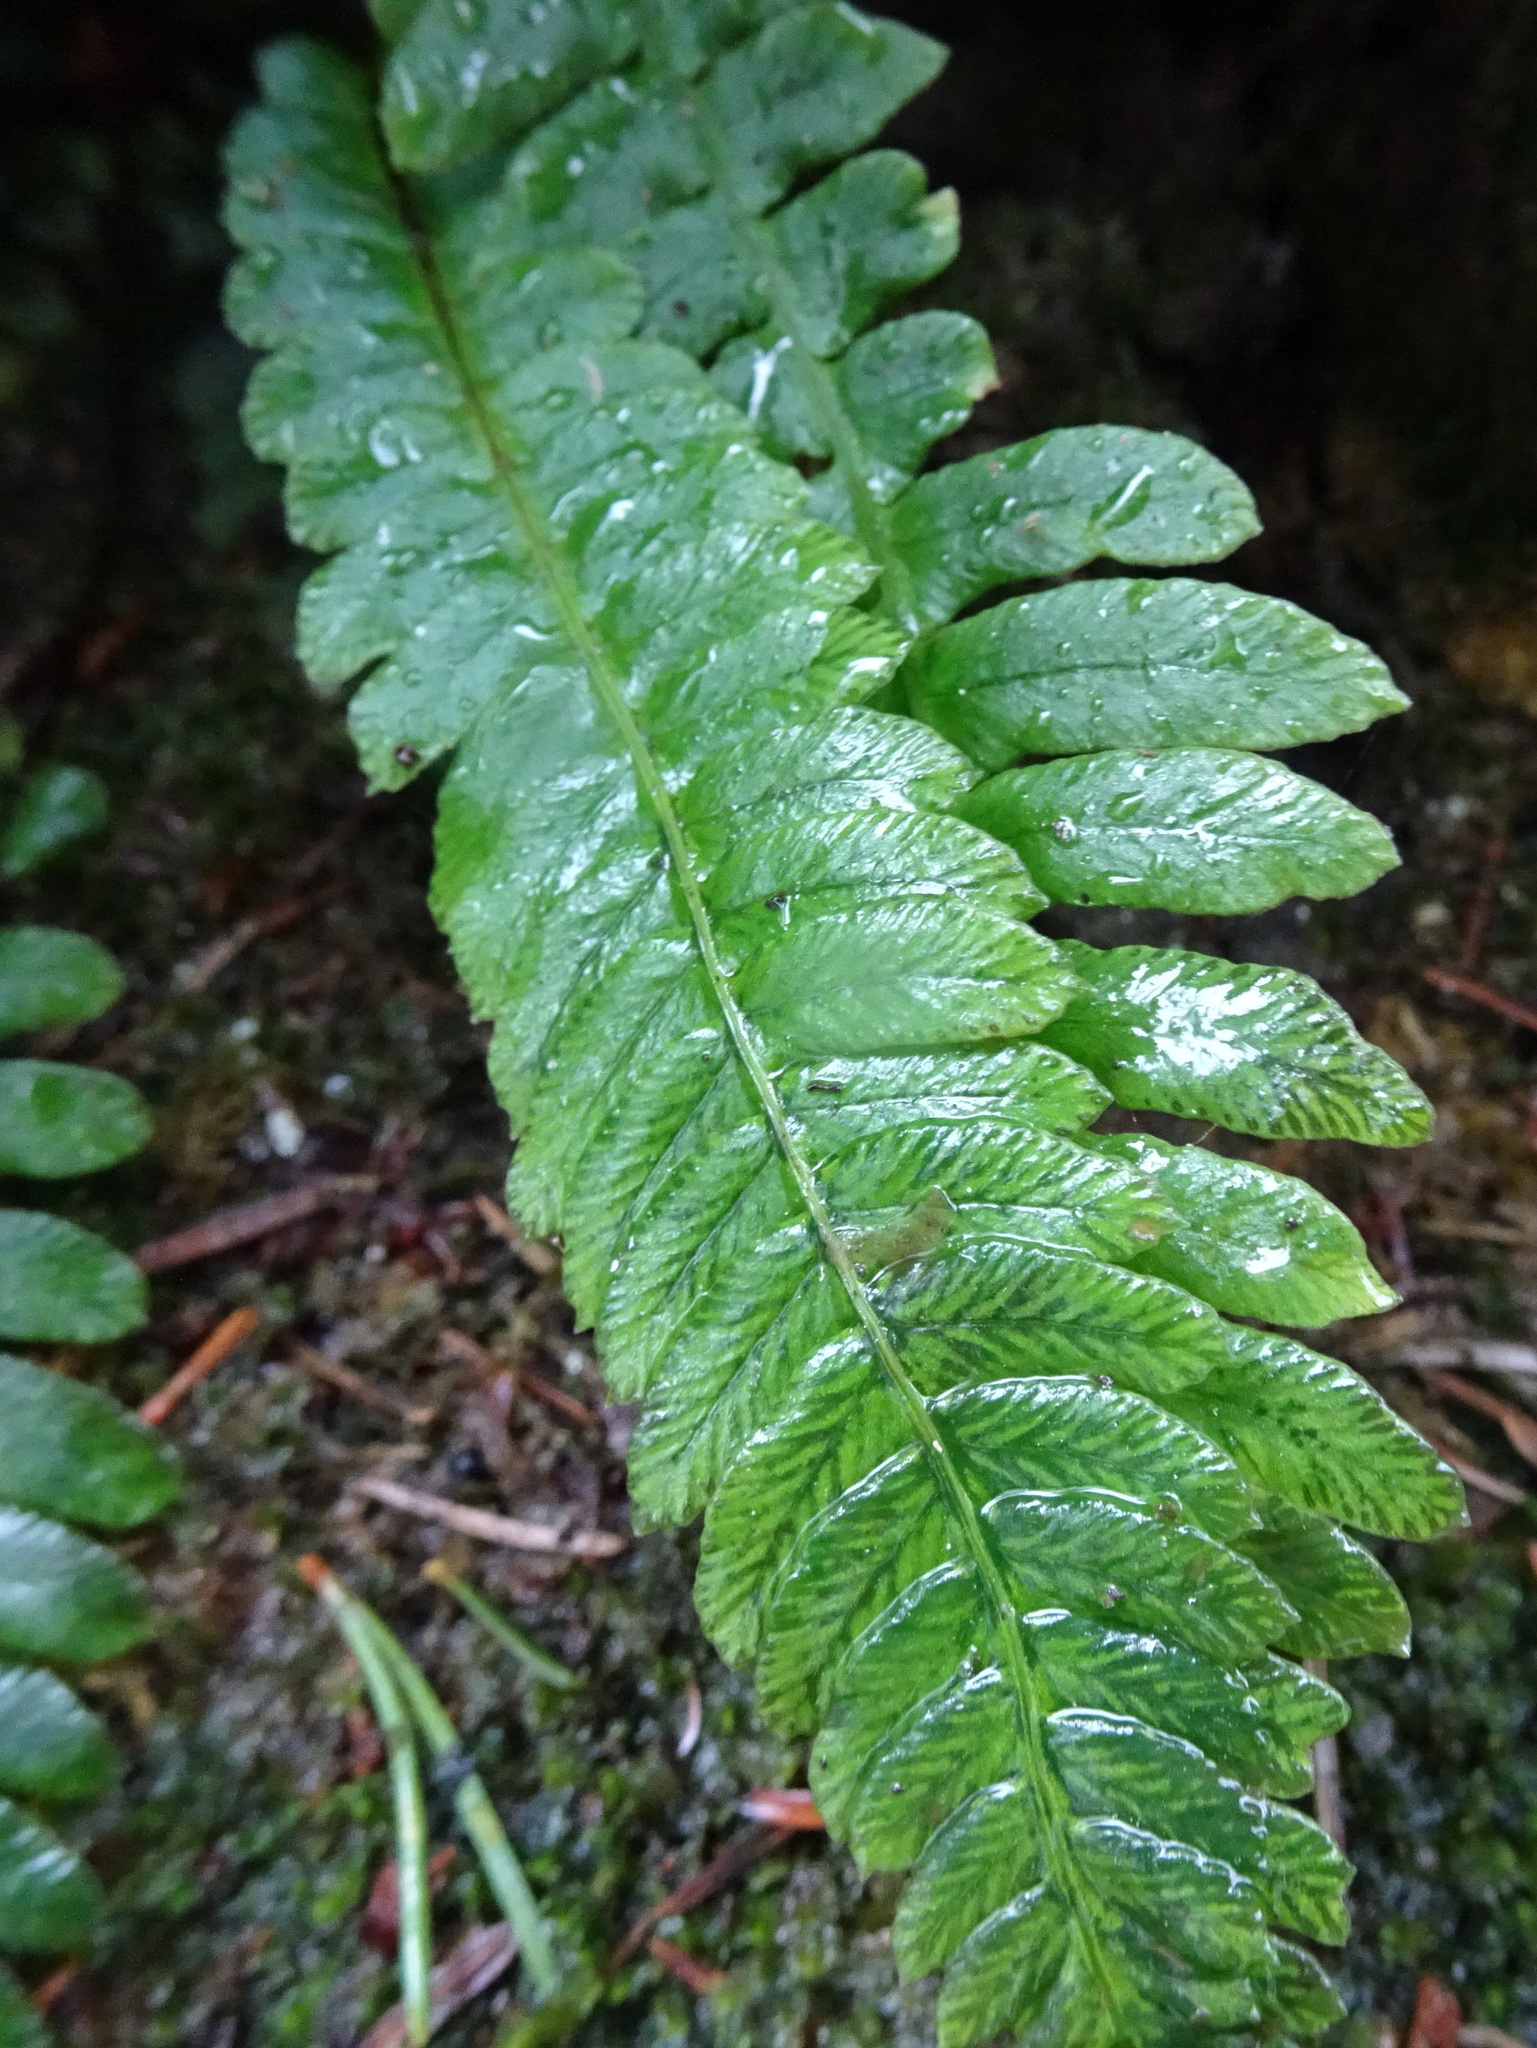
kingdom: Plantae
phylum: Tracheophyta
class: Polypodiopsida
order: Polypodiales
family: Blechnaceae
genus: Struthiopteris
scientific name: Struthiopteris spicant
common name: Deer fern
